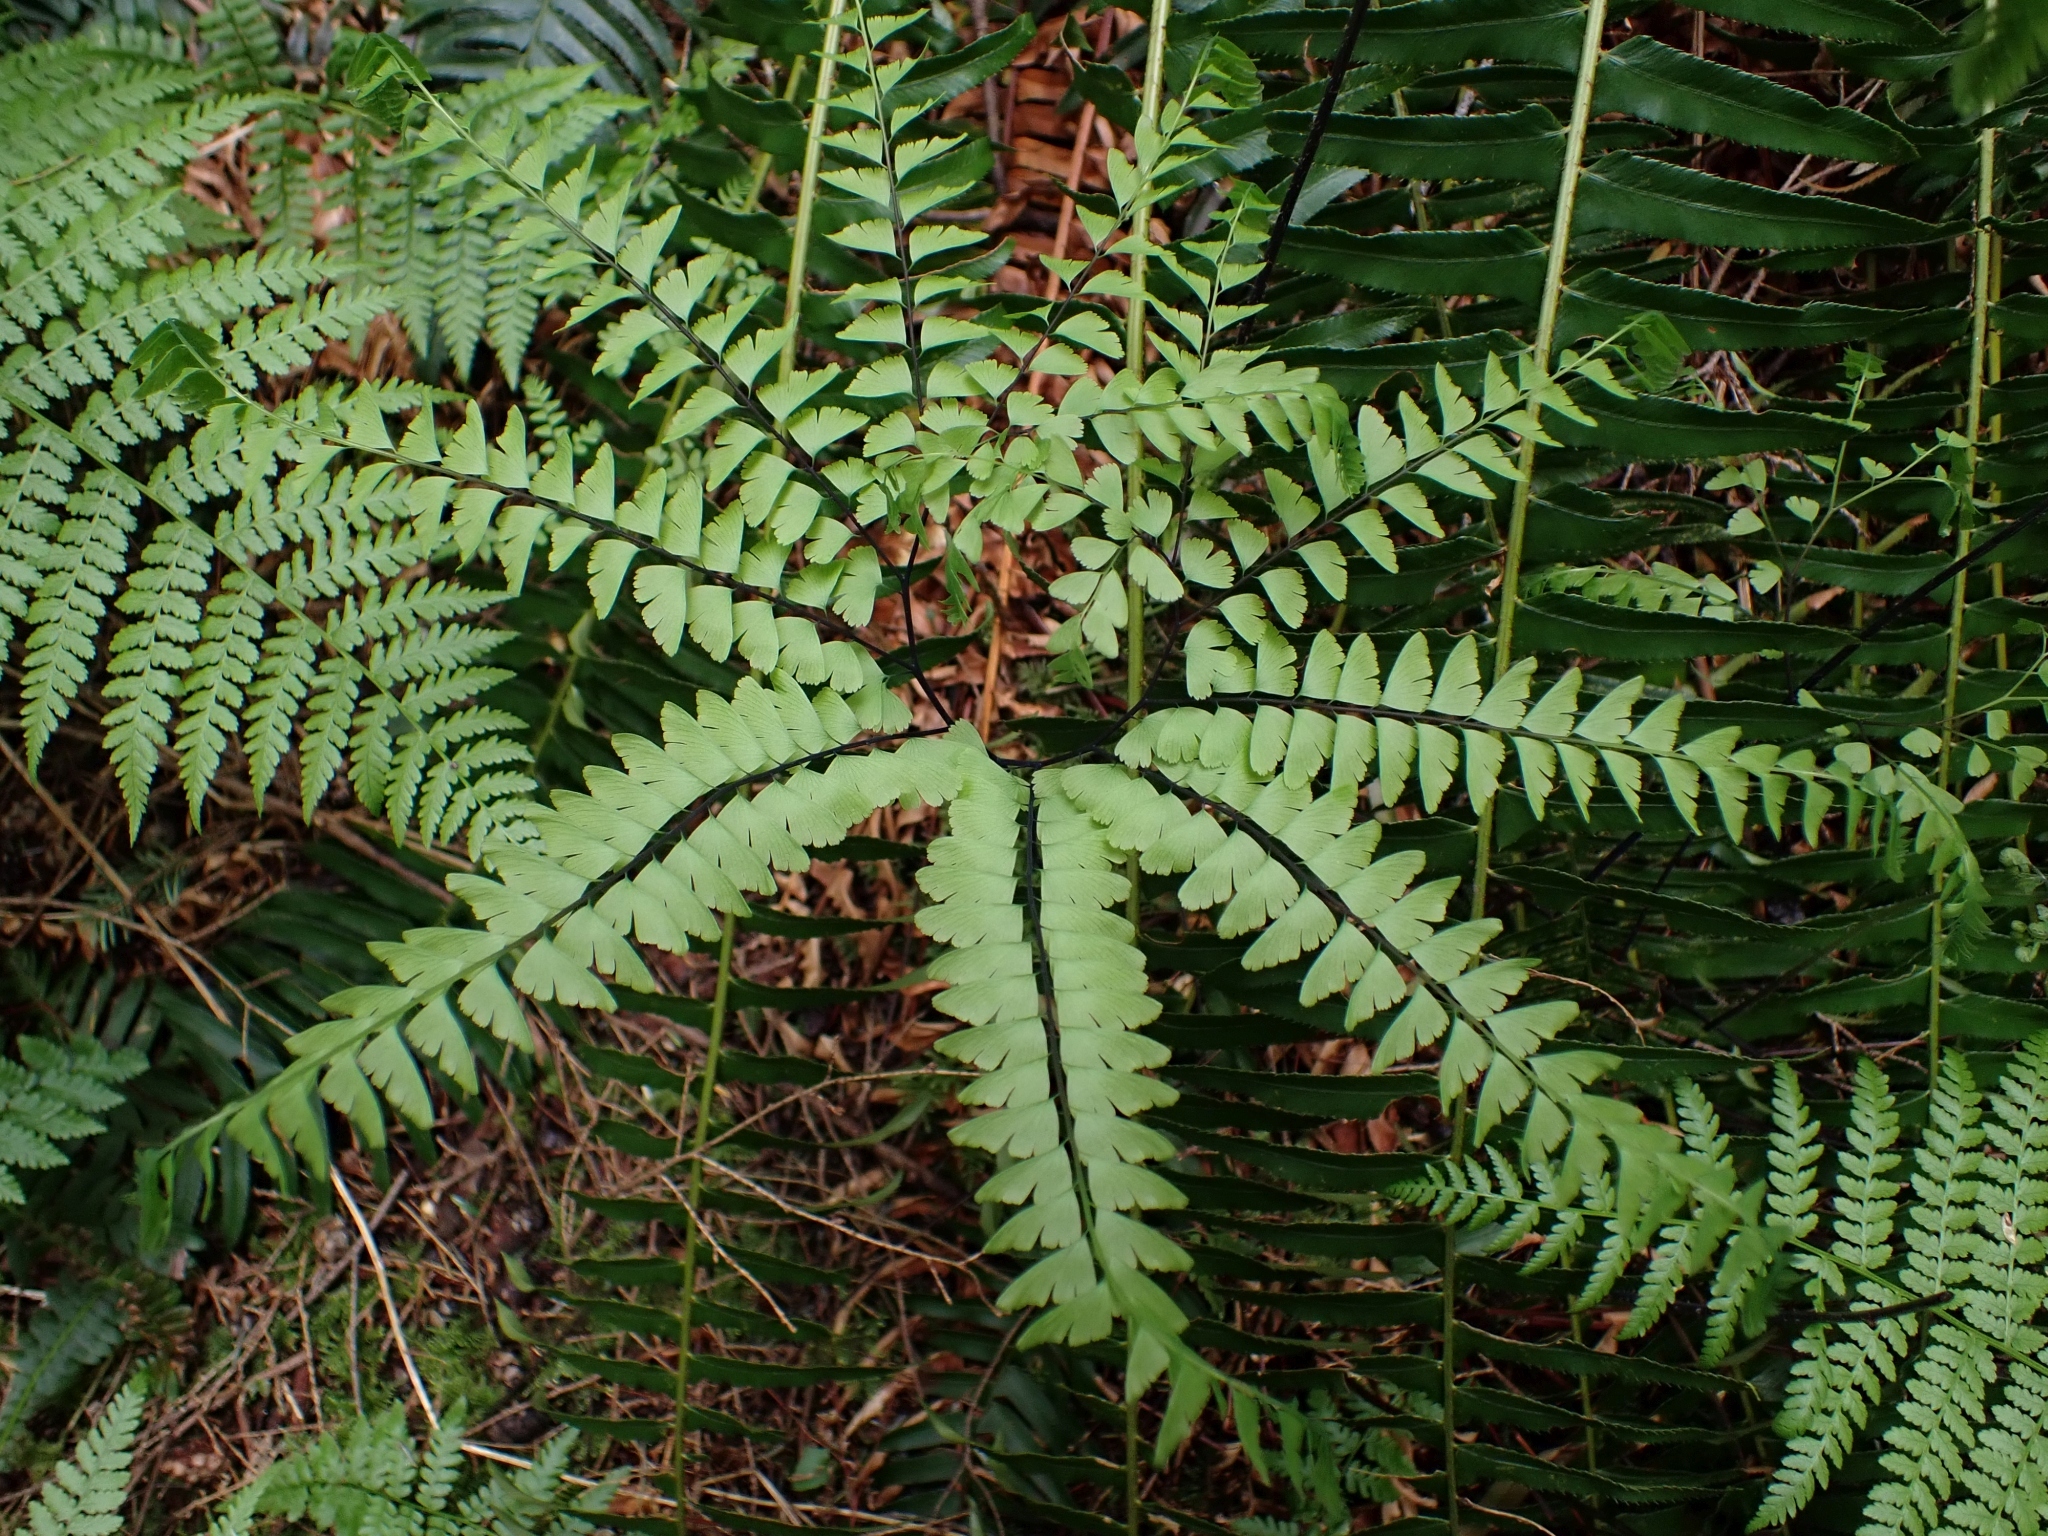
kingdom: Plantae
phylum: Tracheophyta
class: Polypodiopsida
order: Polypodiales
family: Pteridaceae
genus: Adiantum
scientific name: Adiantum aleuticum
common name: Aleutian maidenhair fern
